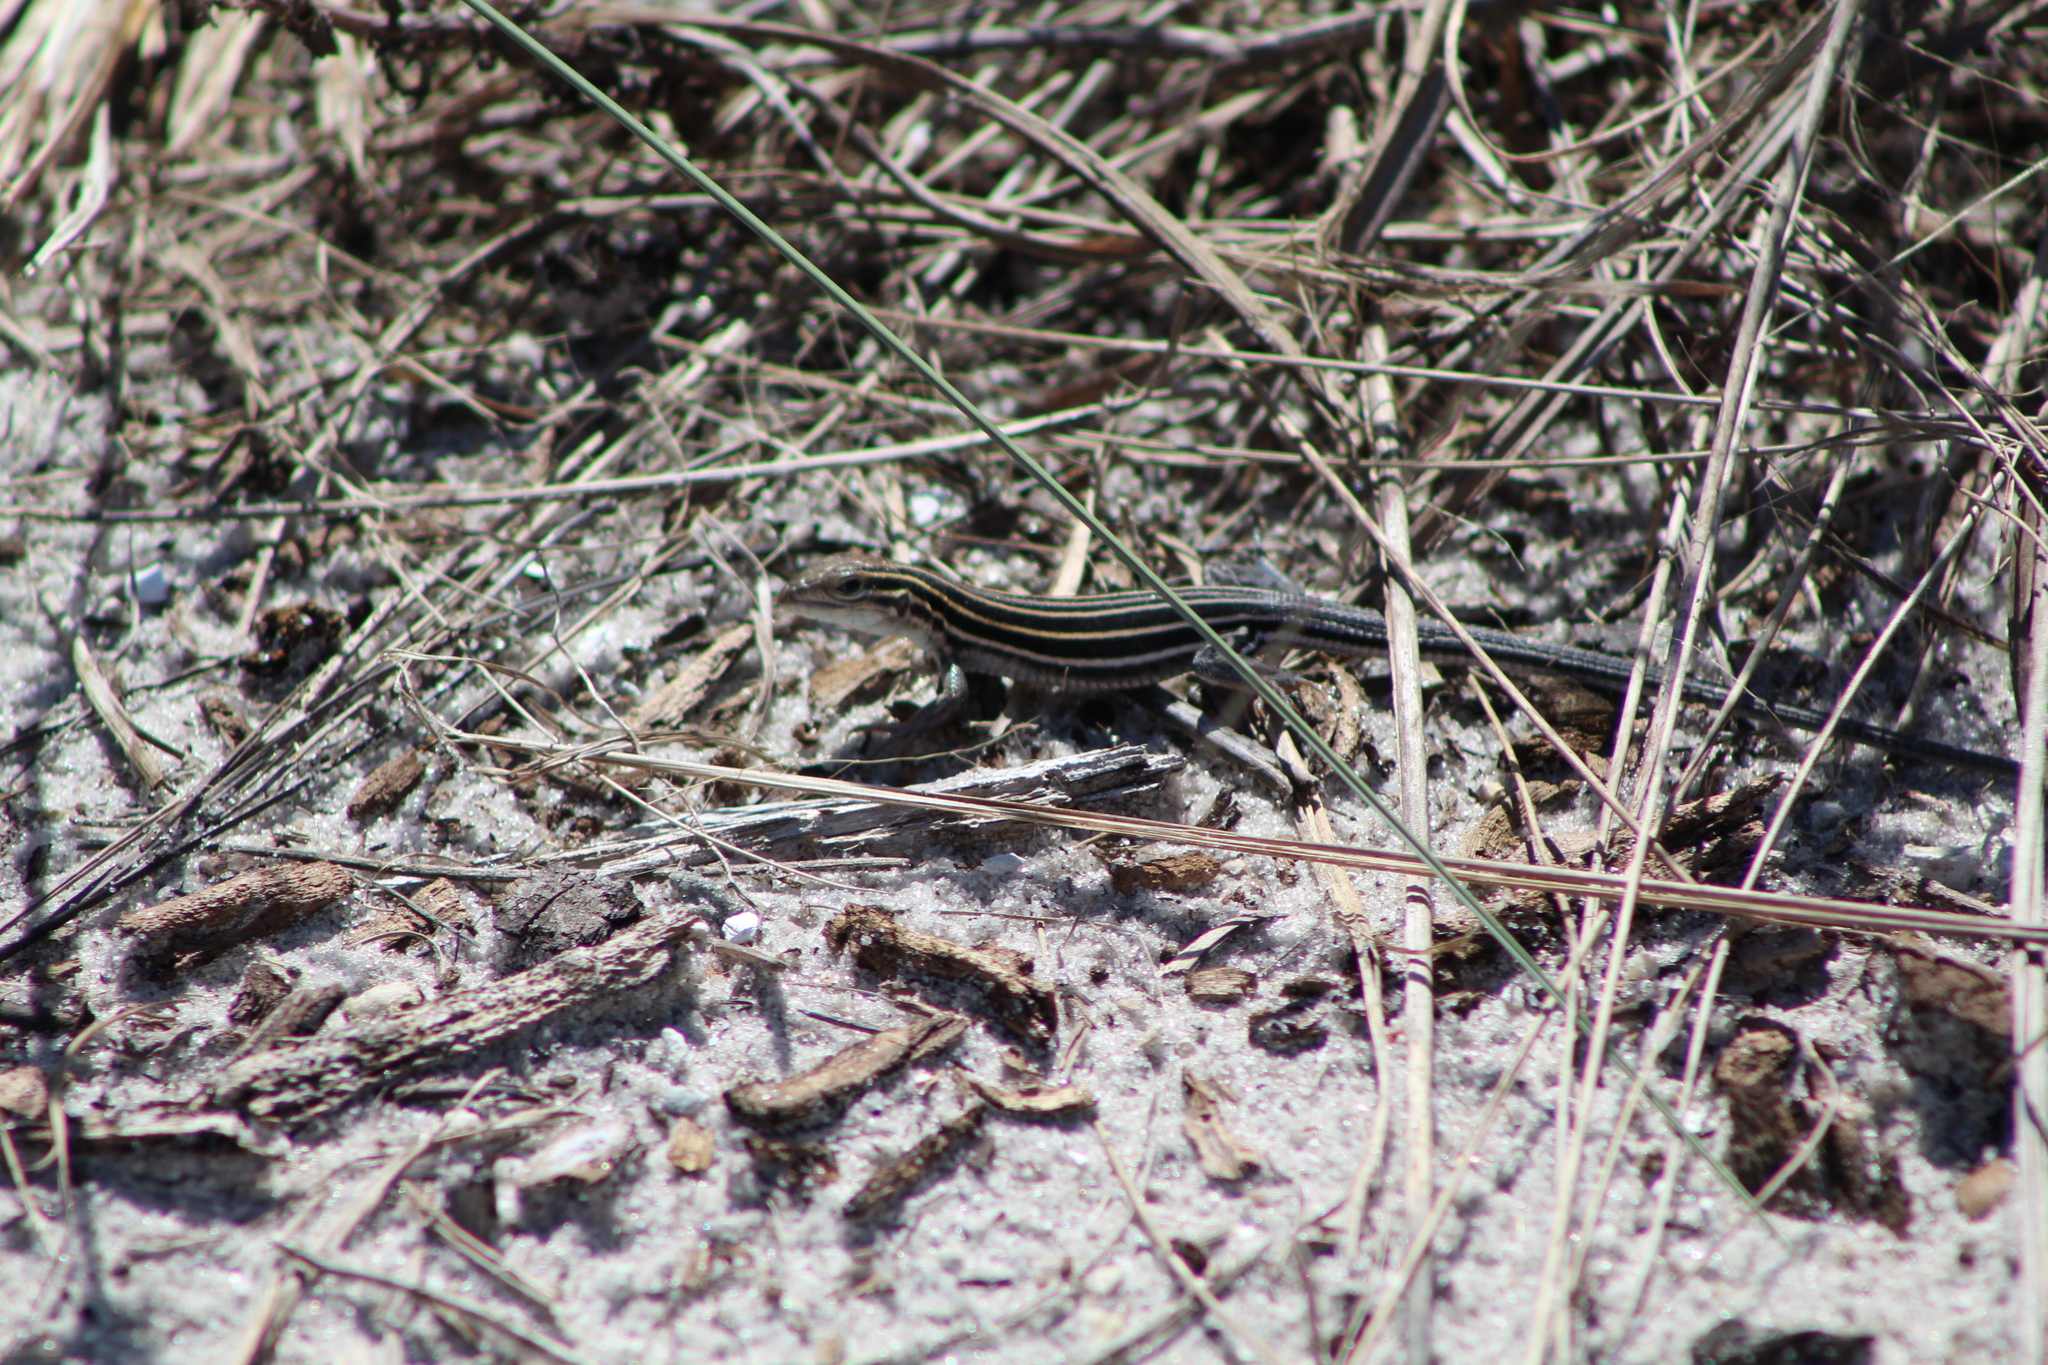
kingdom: Animalia
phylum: Chordata
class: Squamata
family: Teiidae
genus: Aspidoscelis
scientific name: Aspidoscelis sexlineatus
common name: Six-lined racerunner
